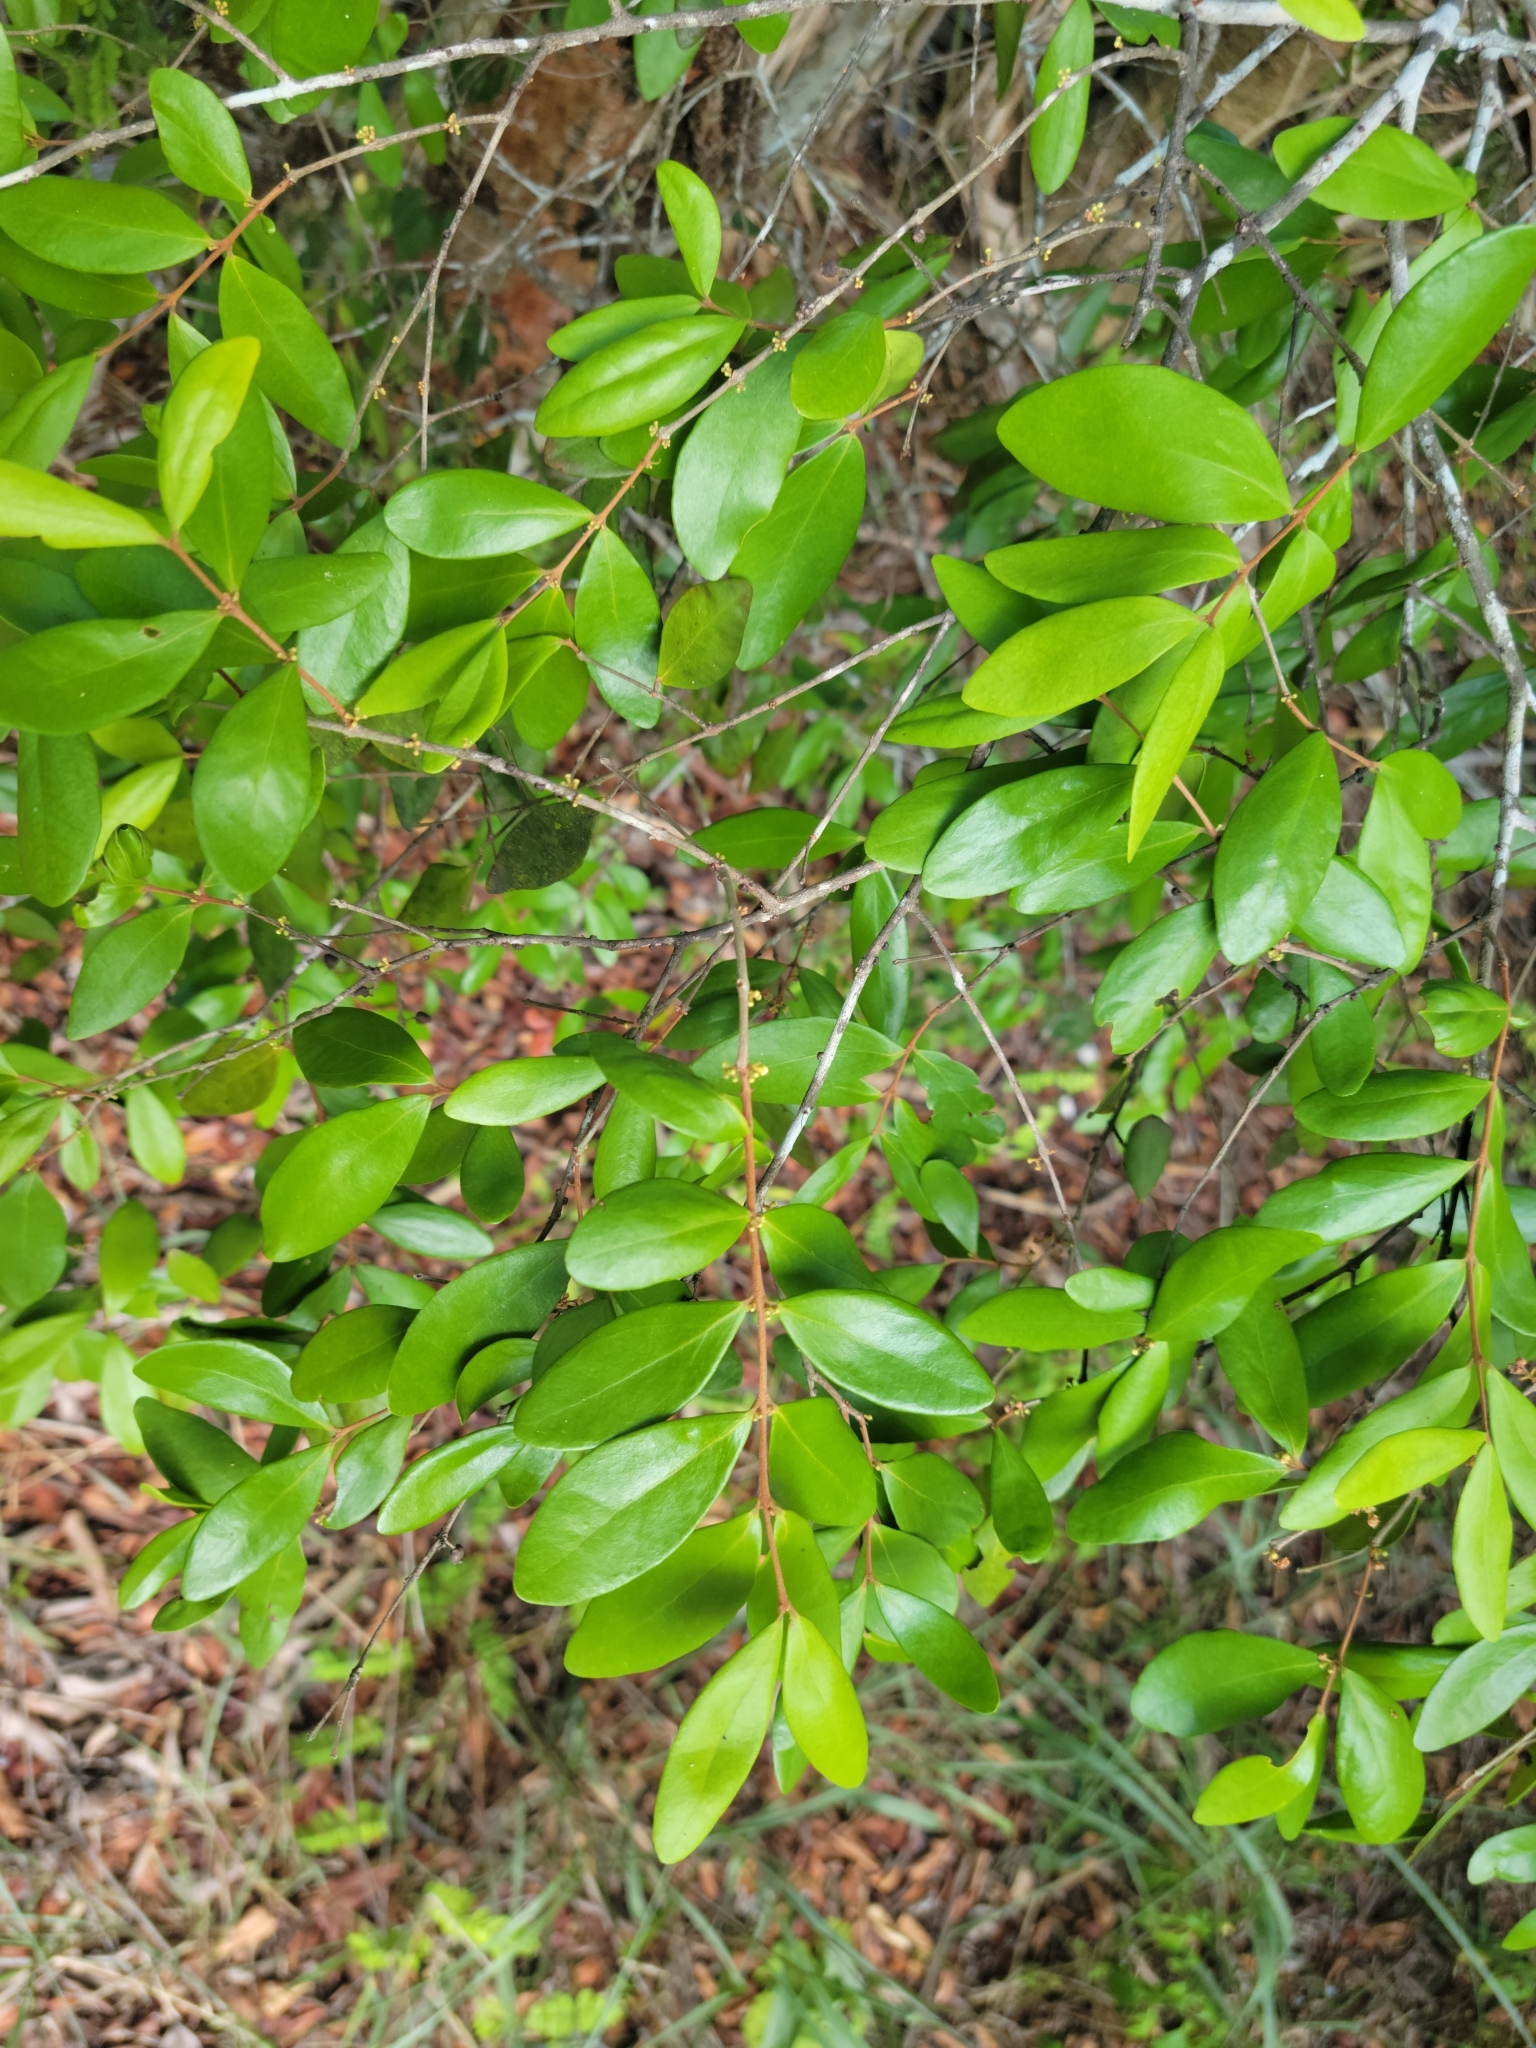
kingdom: Plantae
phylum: Tracheophyta
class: Magnoliopsida
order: Myrtales
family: Myrtaceae
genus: Eugenia
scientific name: Eugenia foetida
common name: White wattling
